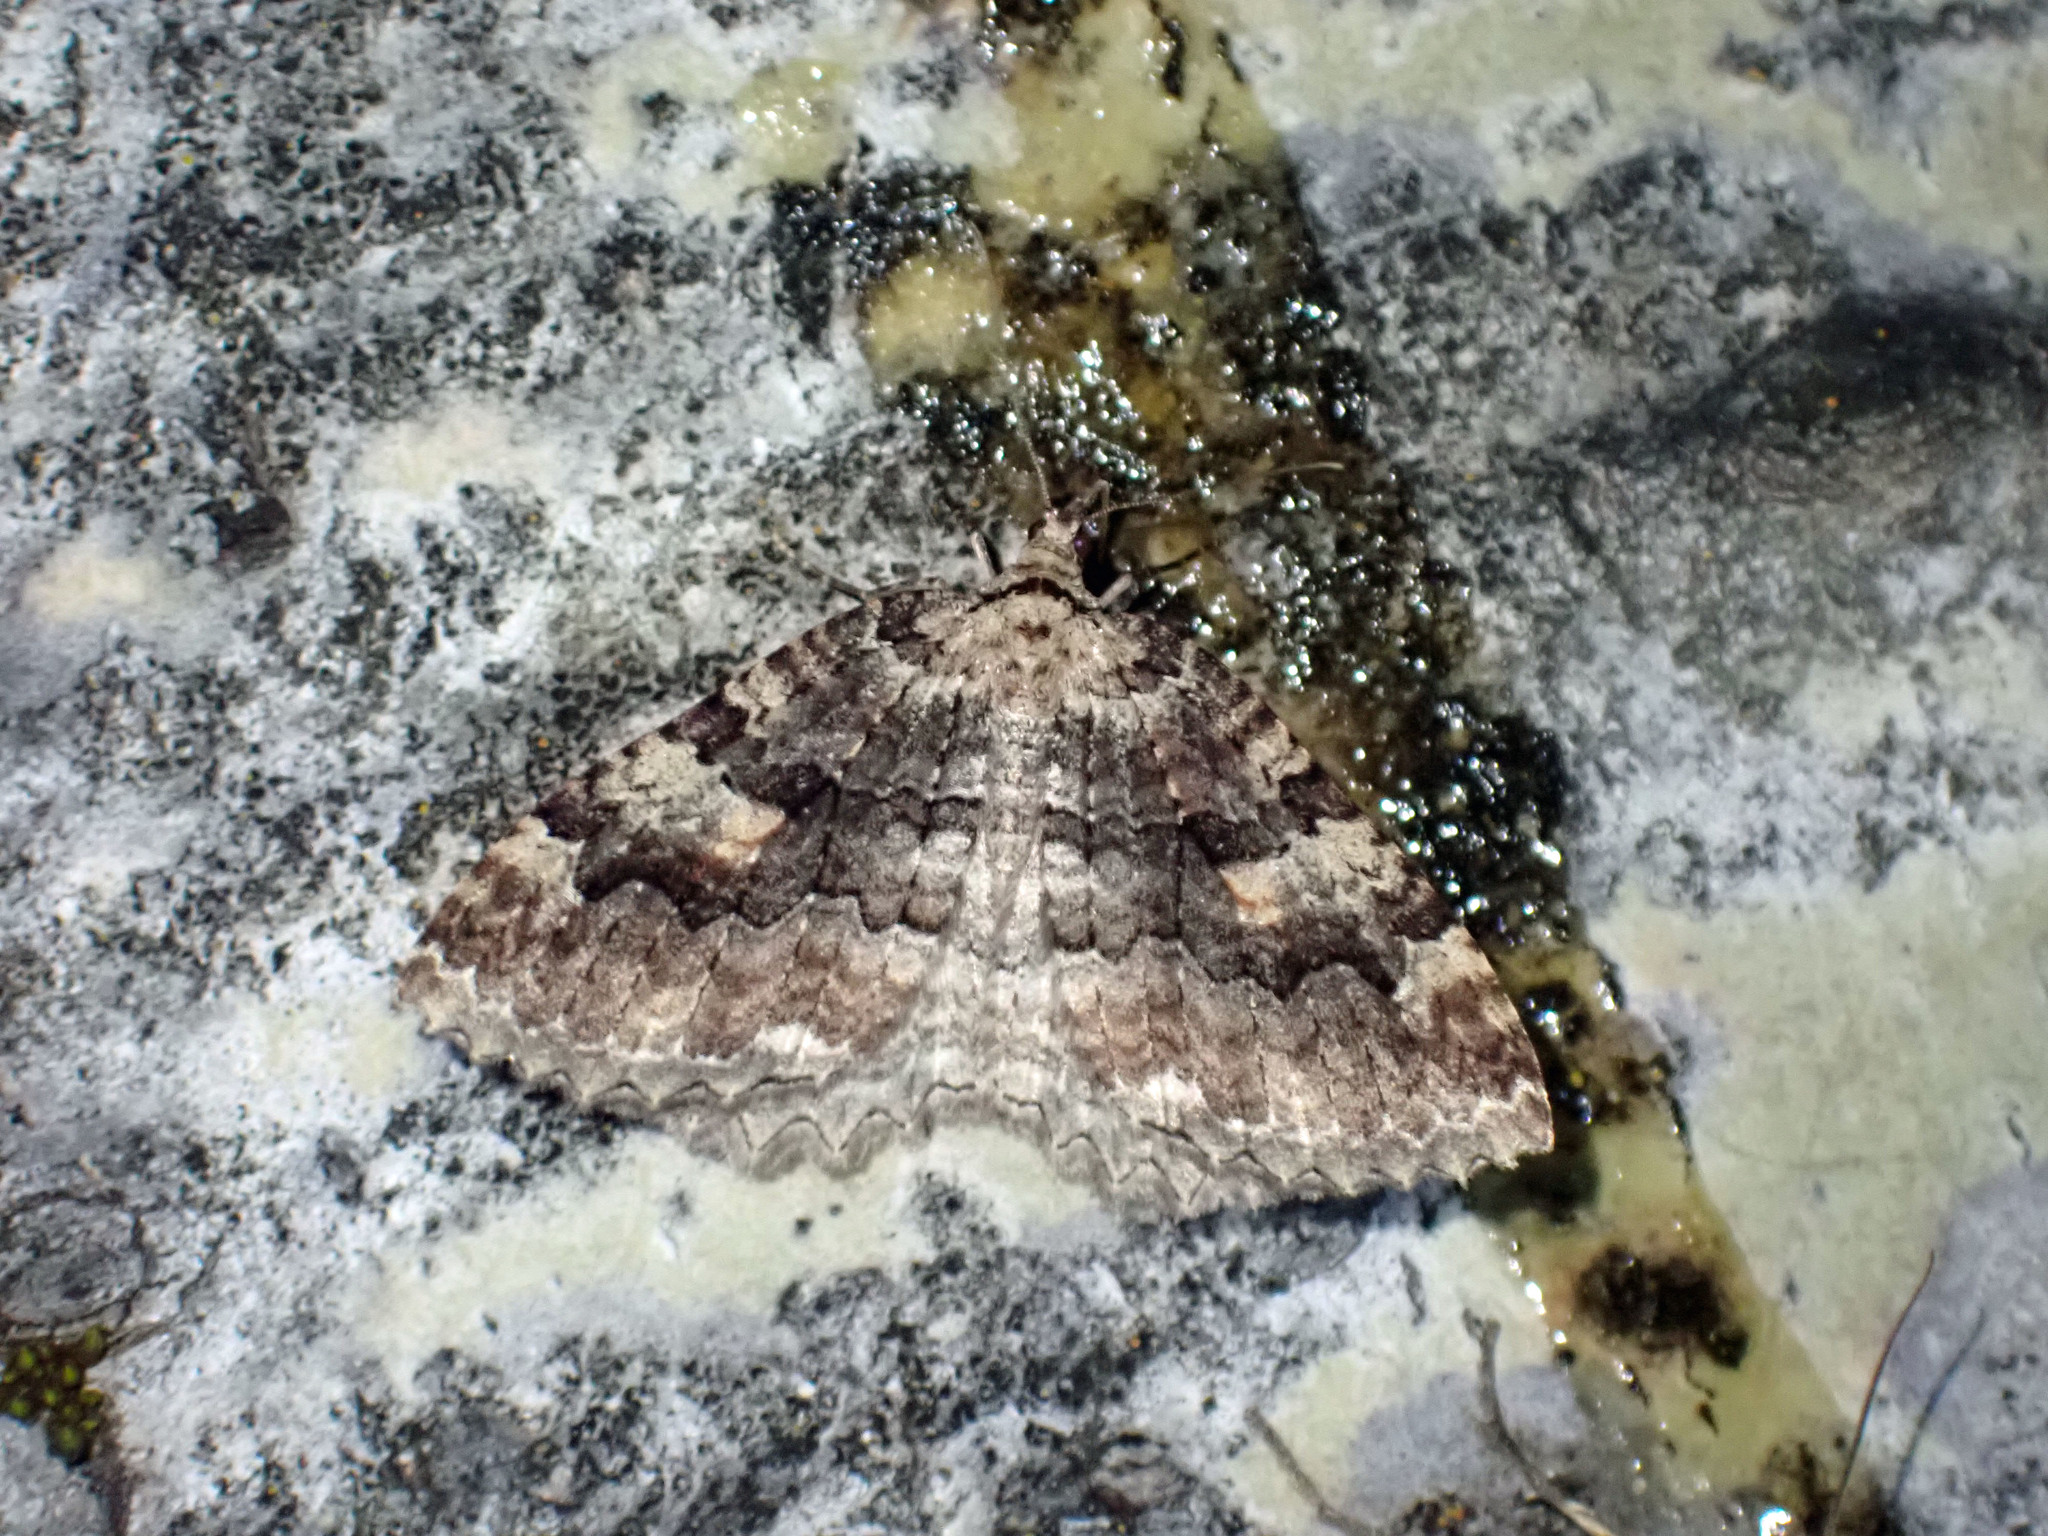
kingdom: Animalia
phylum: Arthropoda
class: Insecta
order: Lepidoptera
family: Geometridae
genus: Triphosa
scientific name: Triphosa haesitata
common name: Tissue moth
